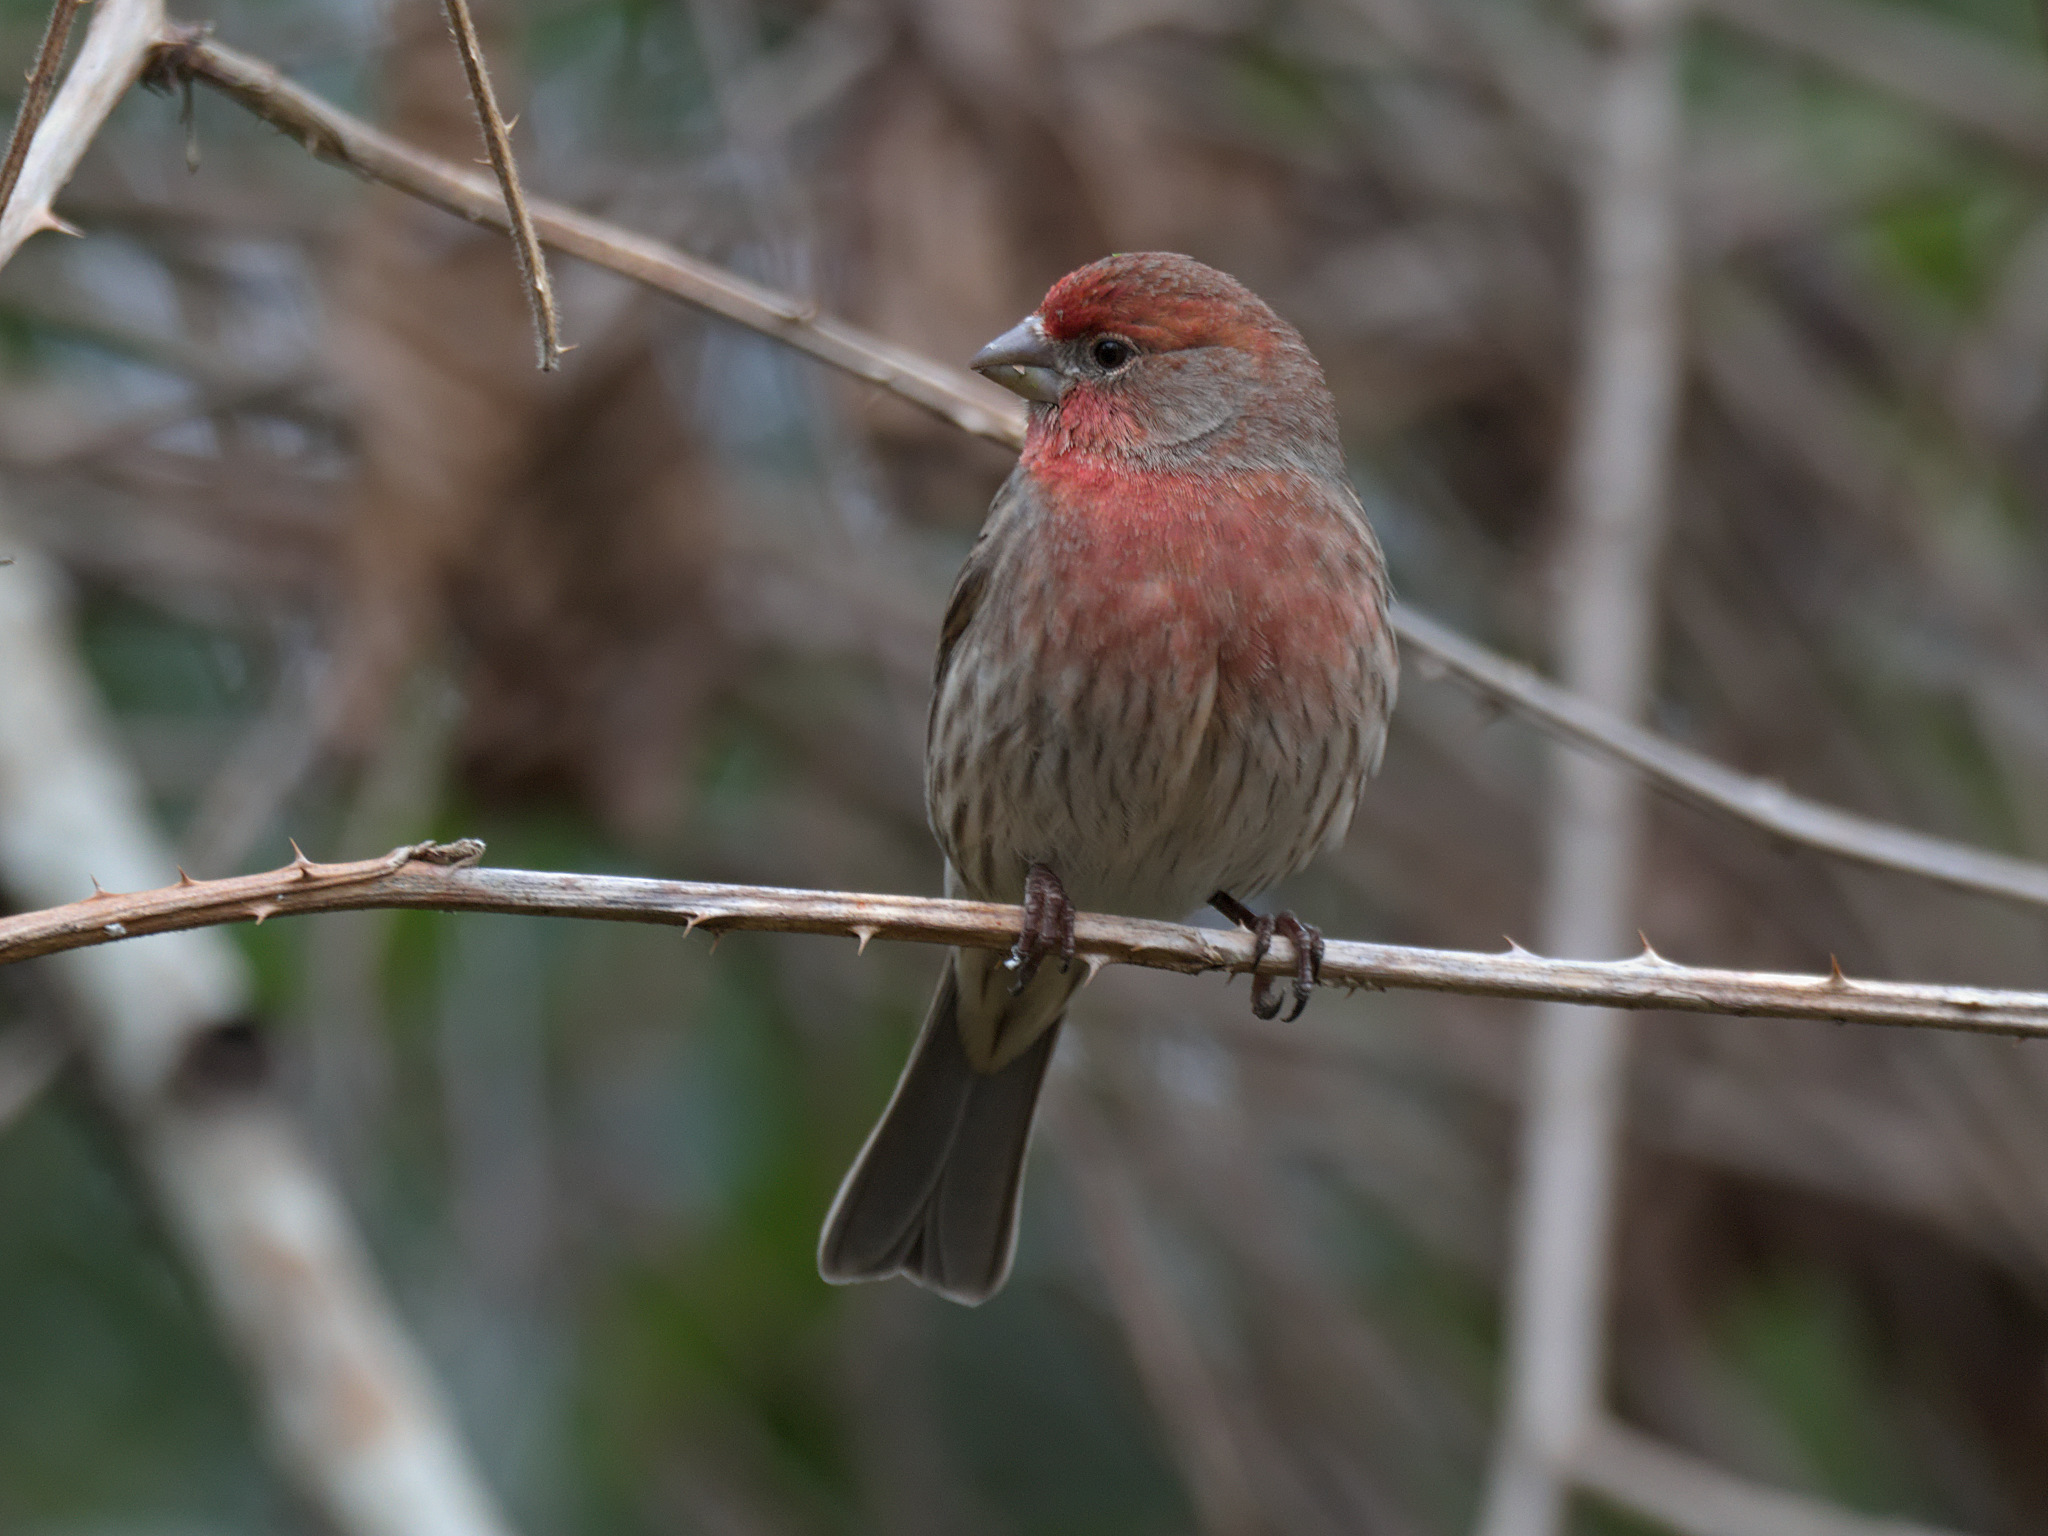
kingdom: Animalia
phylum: Chordata
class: Aves
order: Passeriformes
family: Fringillidae
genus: Haemorhous
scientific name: Haemorhous mexicanus
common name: House finch
